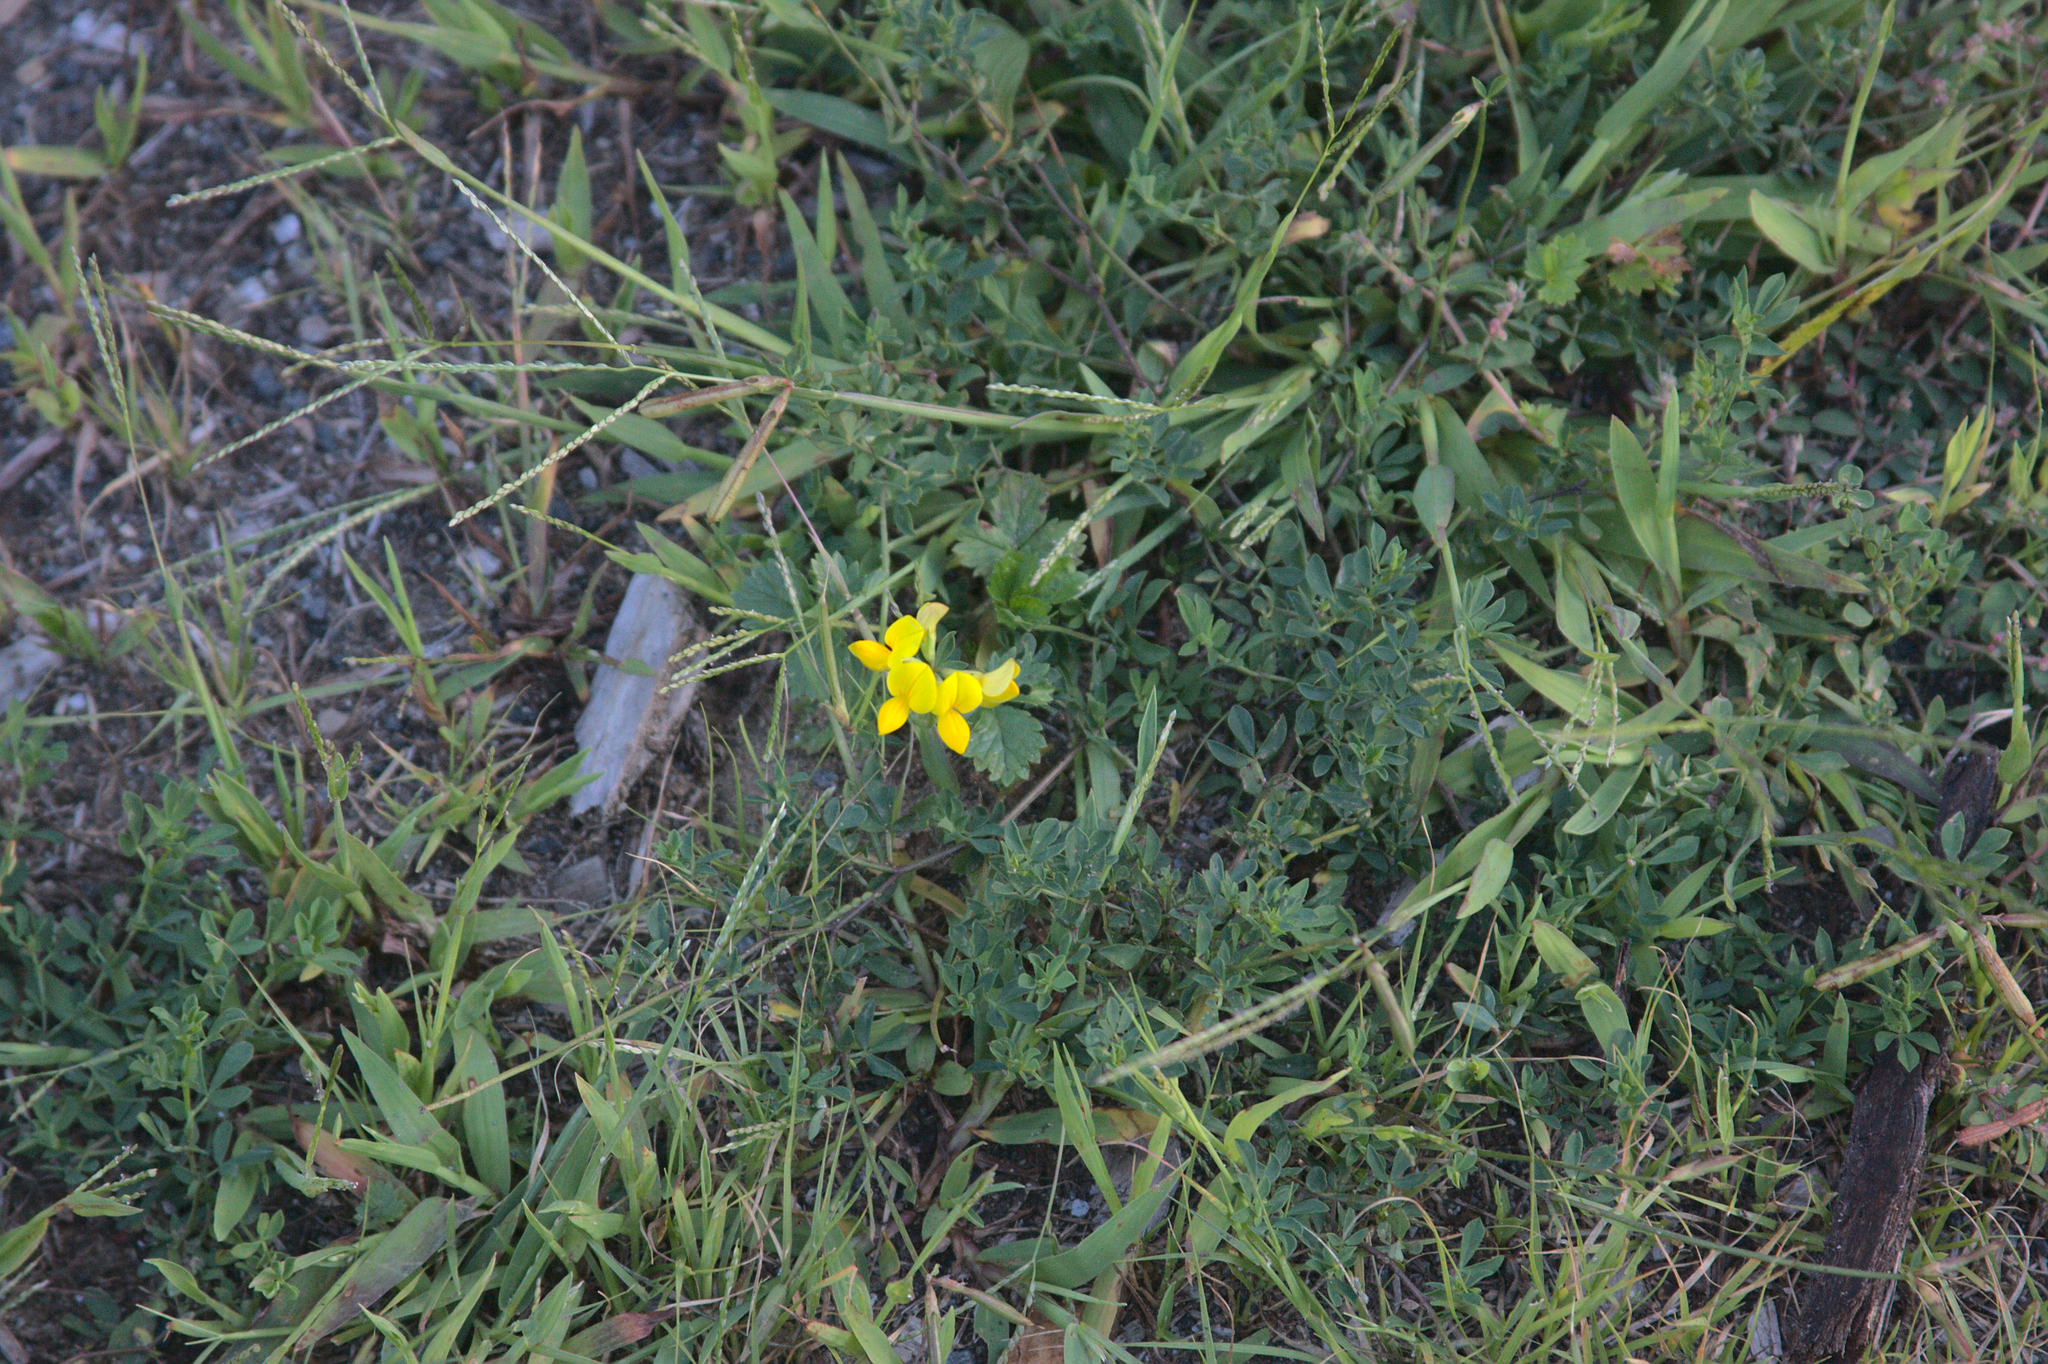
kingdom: Plantae
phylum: Tracheophyta
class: Magnoliopsida
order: Fabales
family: Fabaceae
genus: Lotus
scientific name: Lotus corniculatus
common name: Common bird's-foot-trefoil
